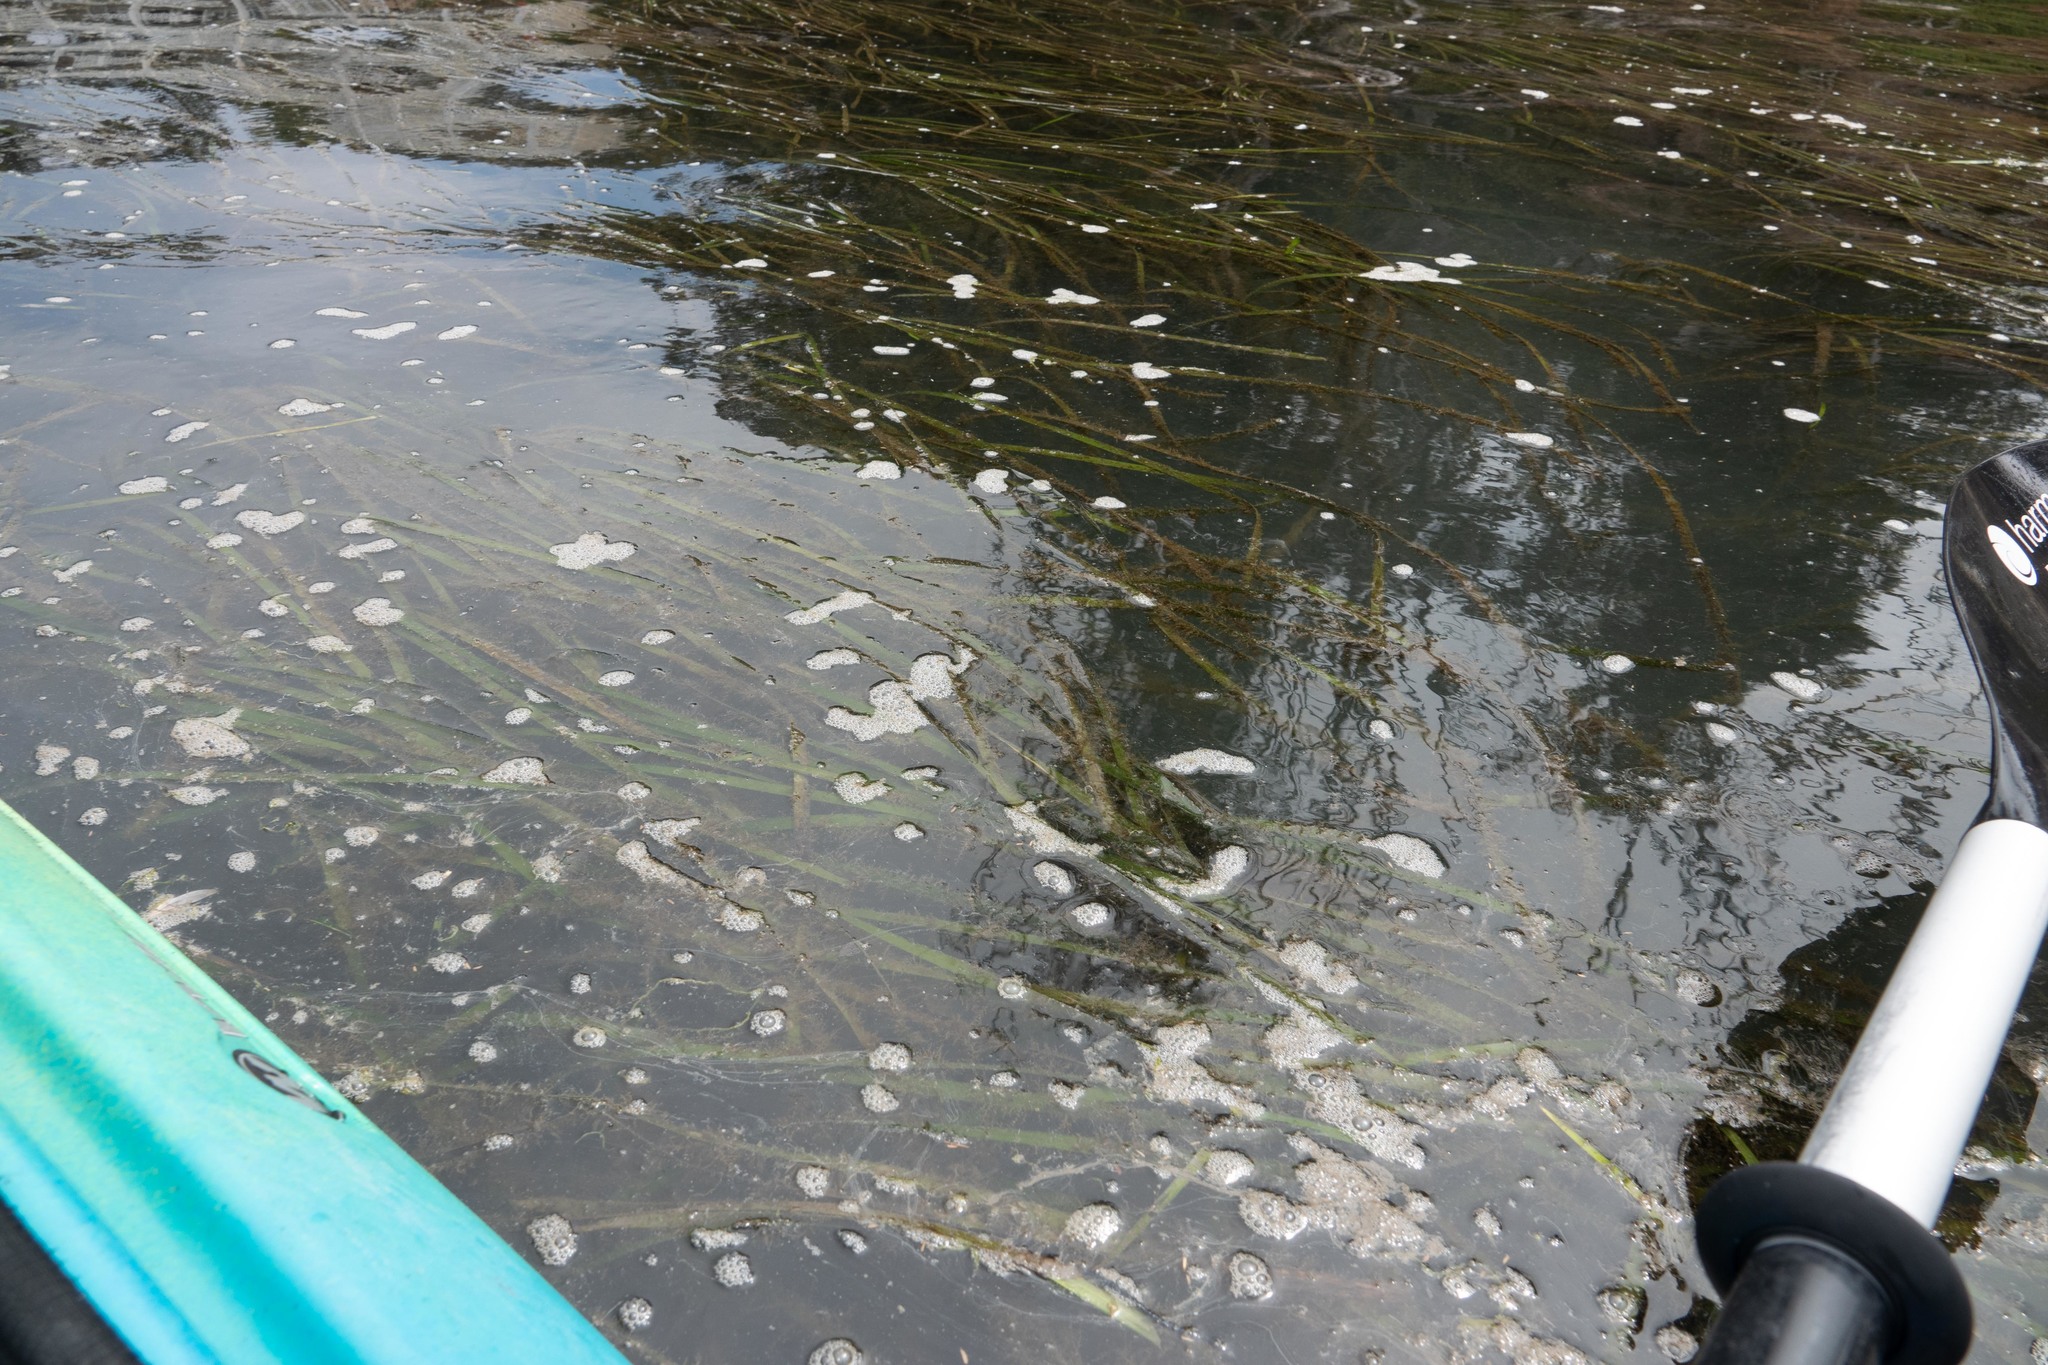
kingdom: Plantae
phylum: Tracheophyta
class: Liliopsida
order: Alismatales
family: Zosteraceae
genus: Zostera
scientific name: Zostera marina
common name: Eelgrass
